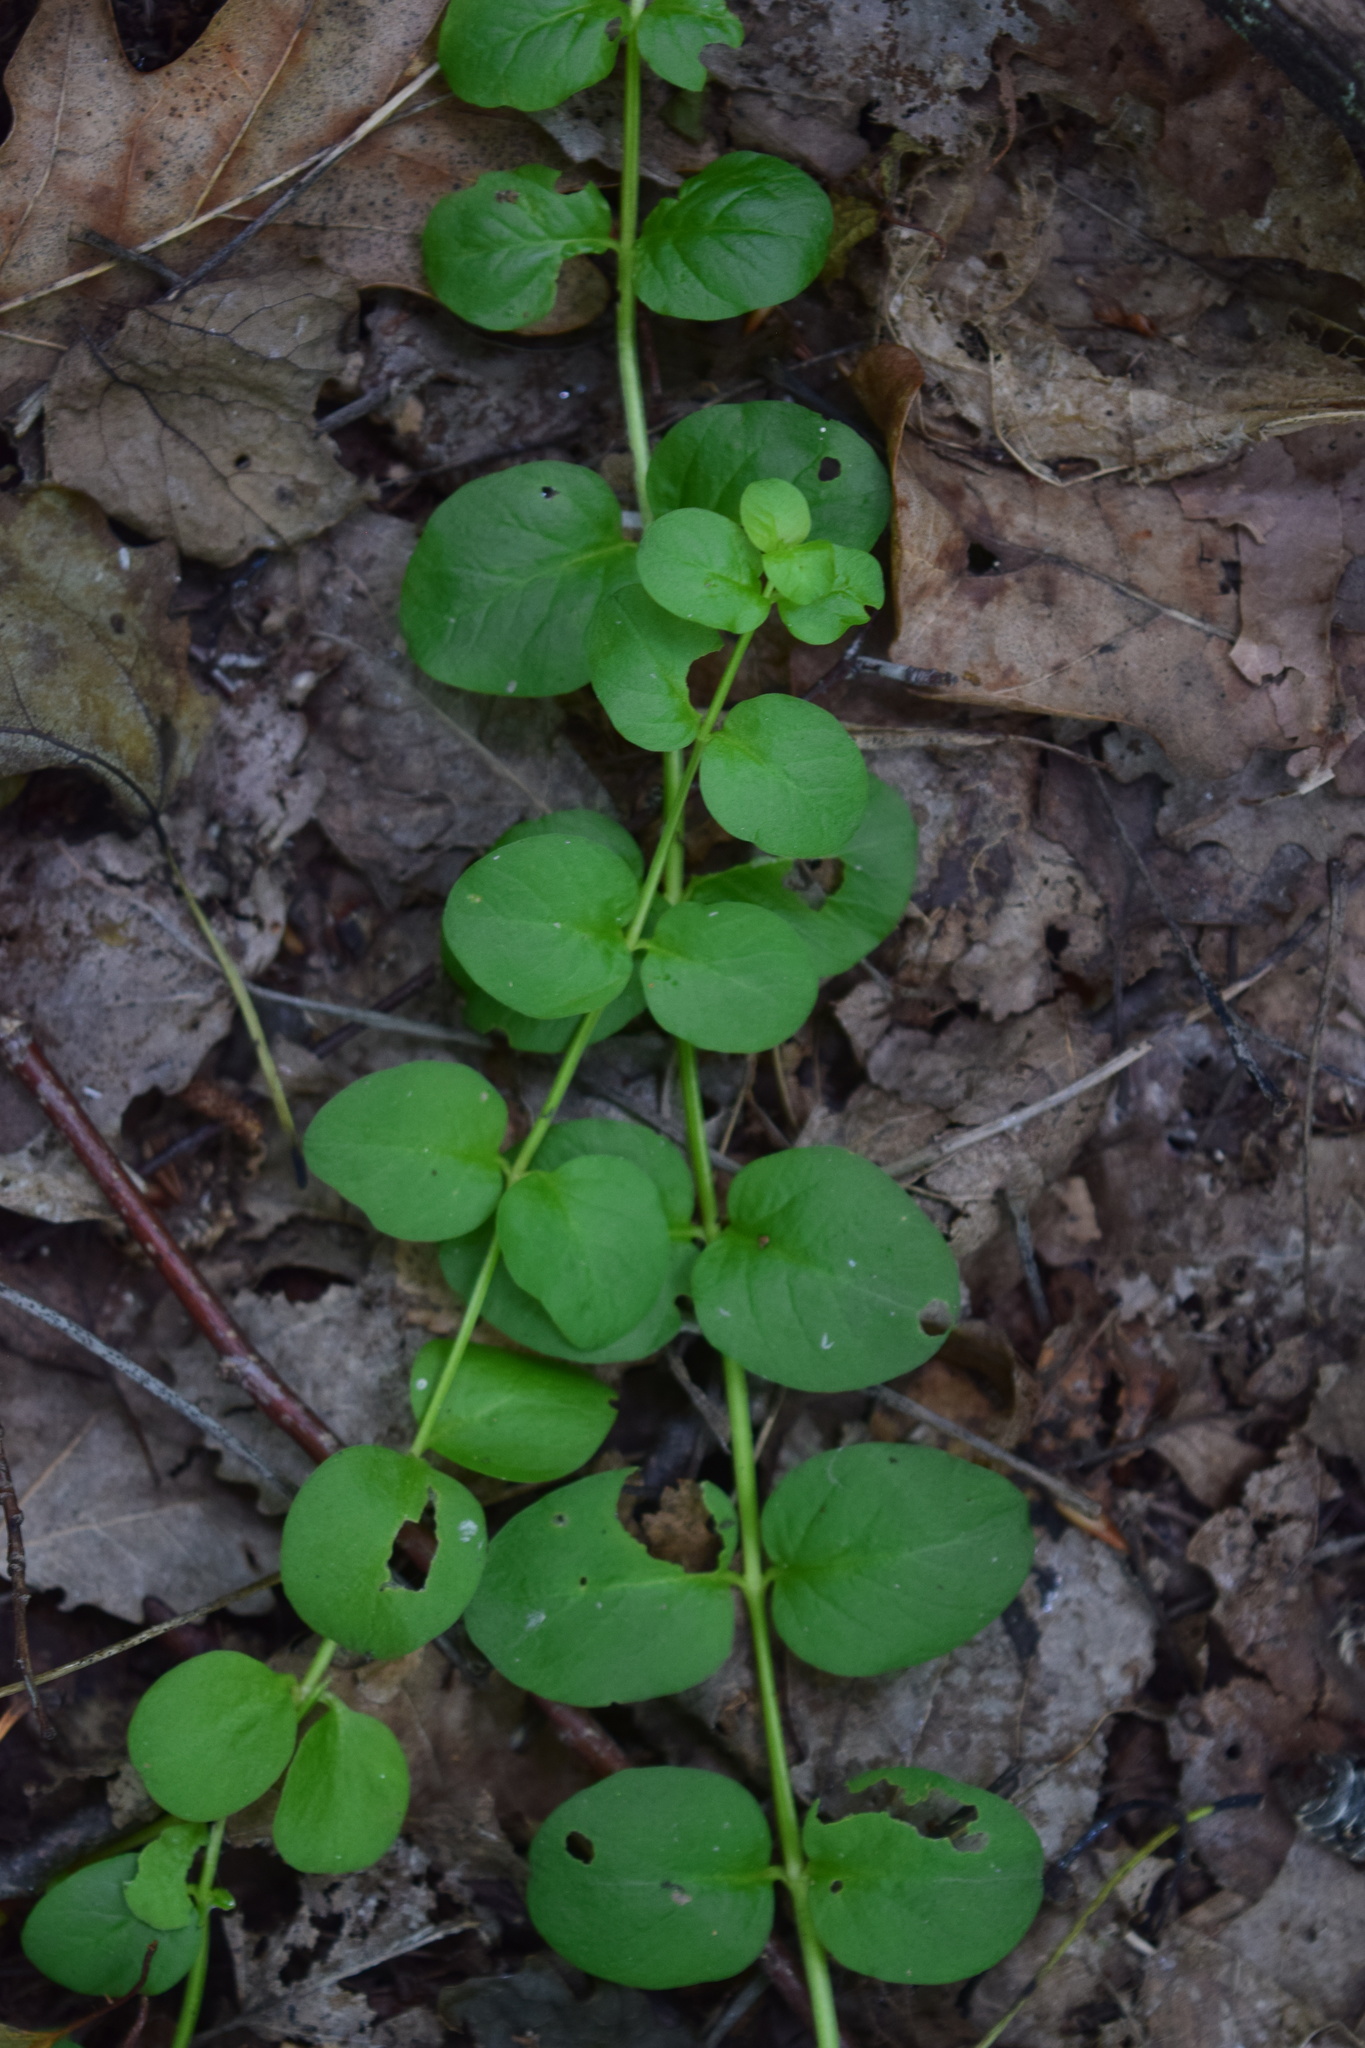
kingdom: Plantae
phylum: Tracheophyta
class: Magnoliopsida
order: Ericales
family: Primulaceae
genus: Lysimachia
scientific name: Lysimachia nummularia
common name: Moneywort
